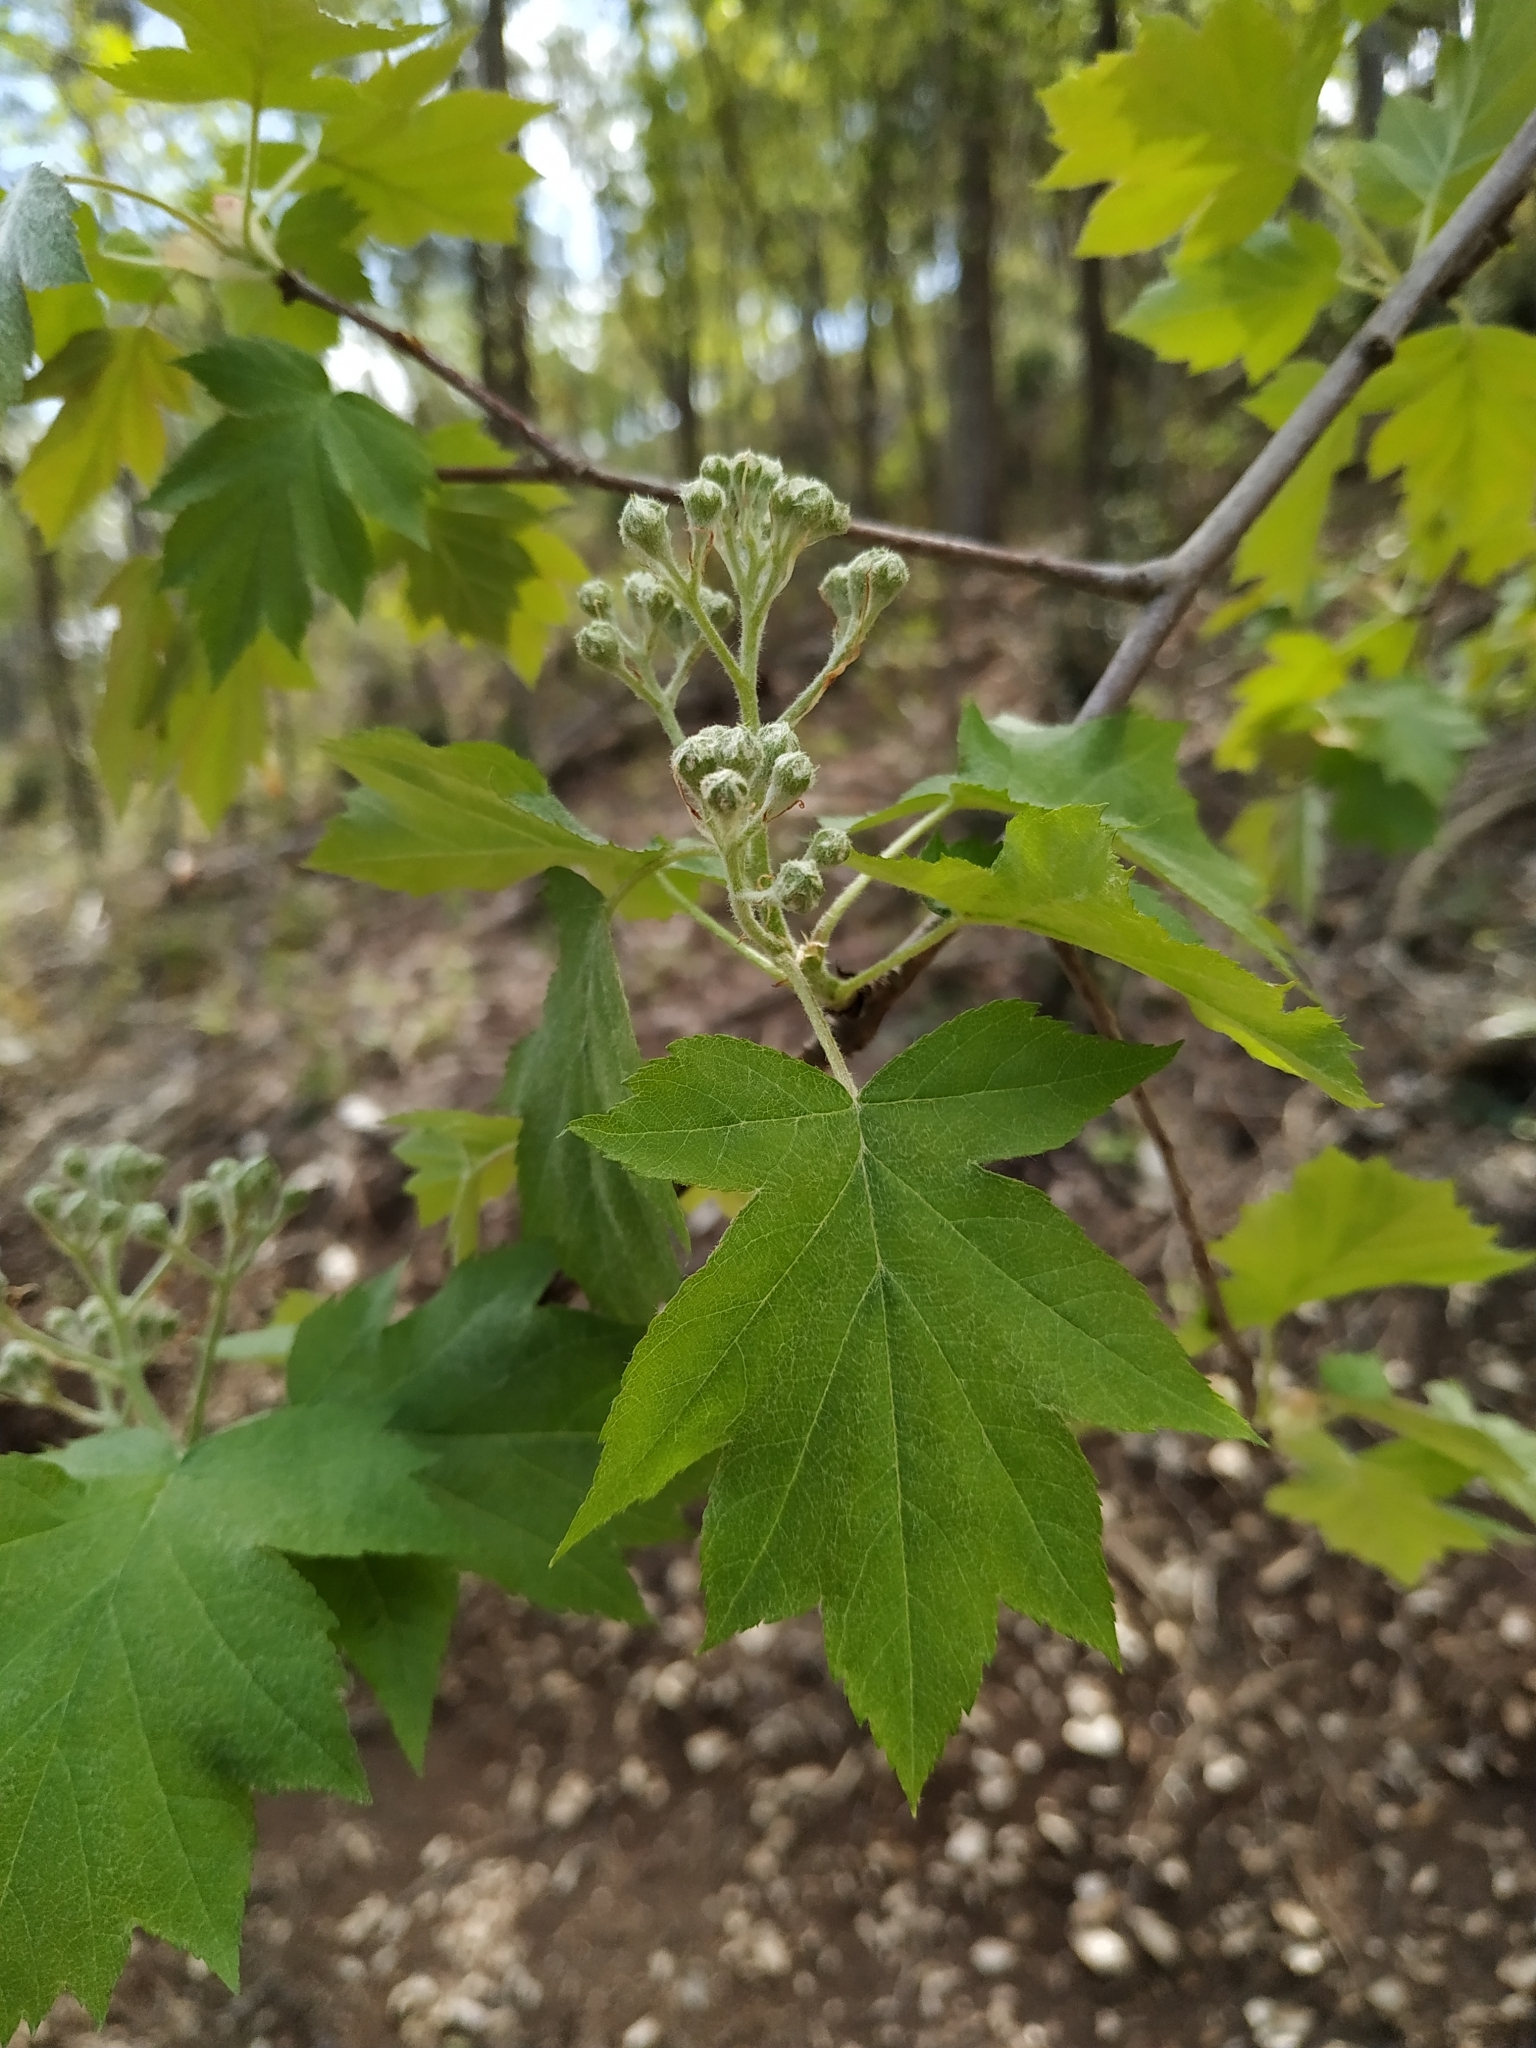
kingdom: Plantae
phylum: Tracheophyta
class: Magnoliopsida
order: Rosales
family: Rosaceae
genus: Torminalis
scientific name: Torminalis glaberrima
